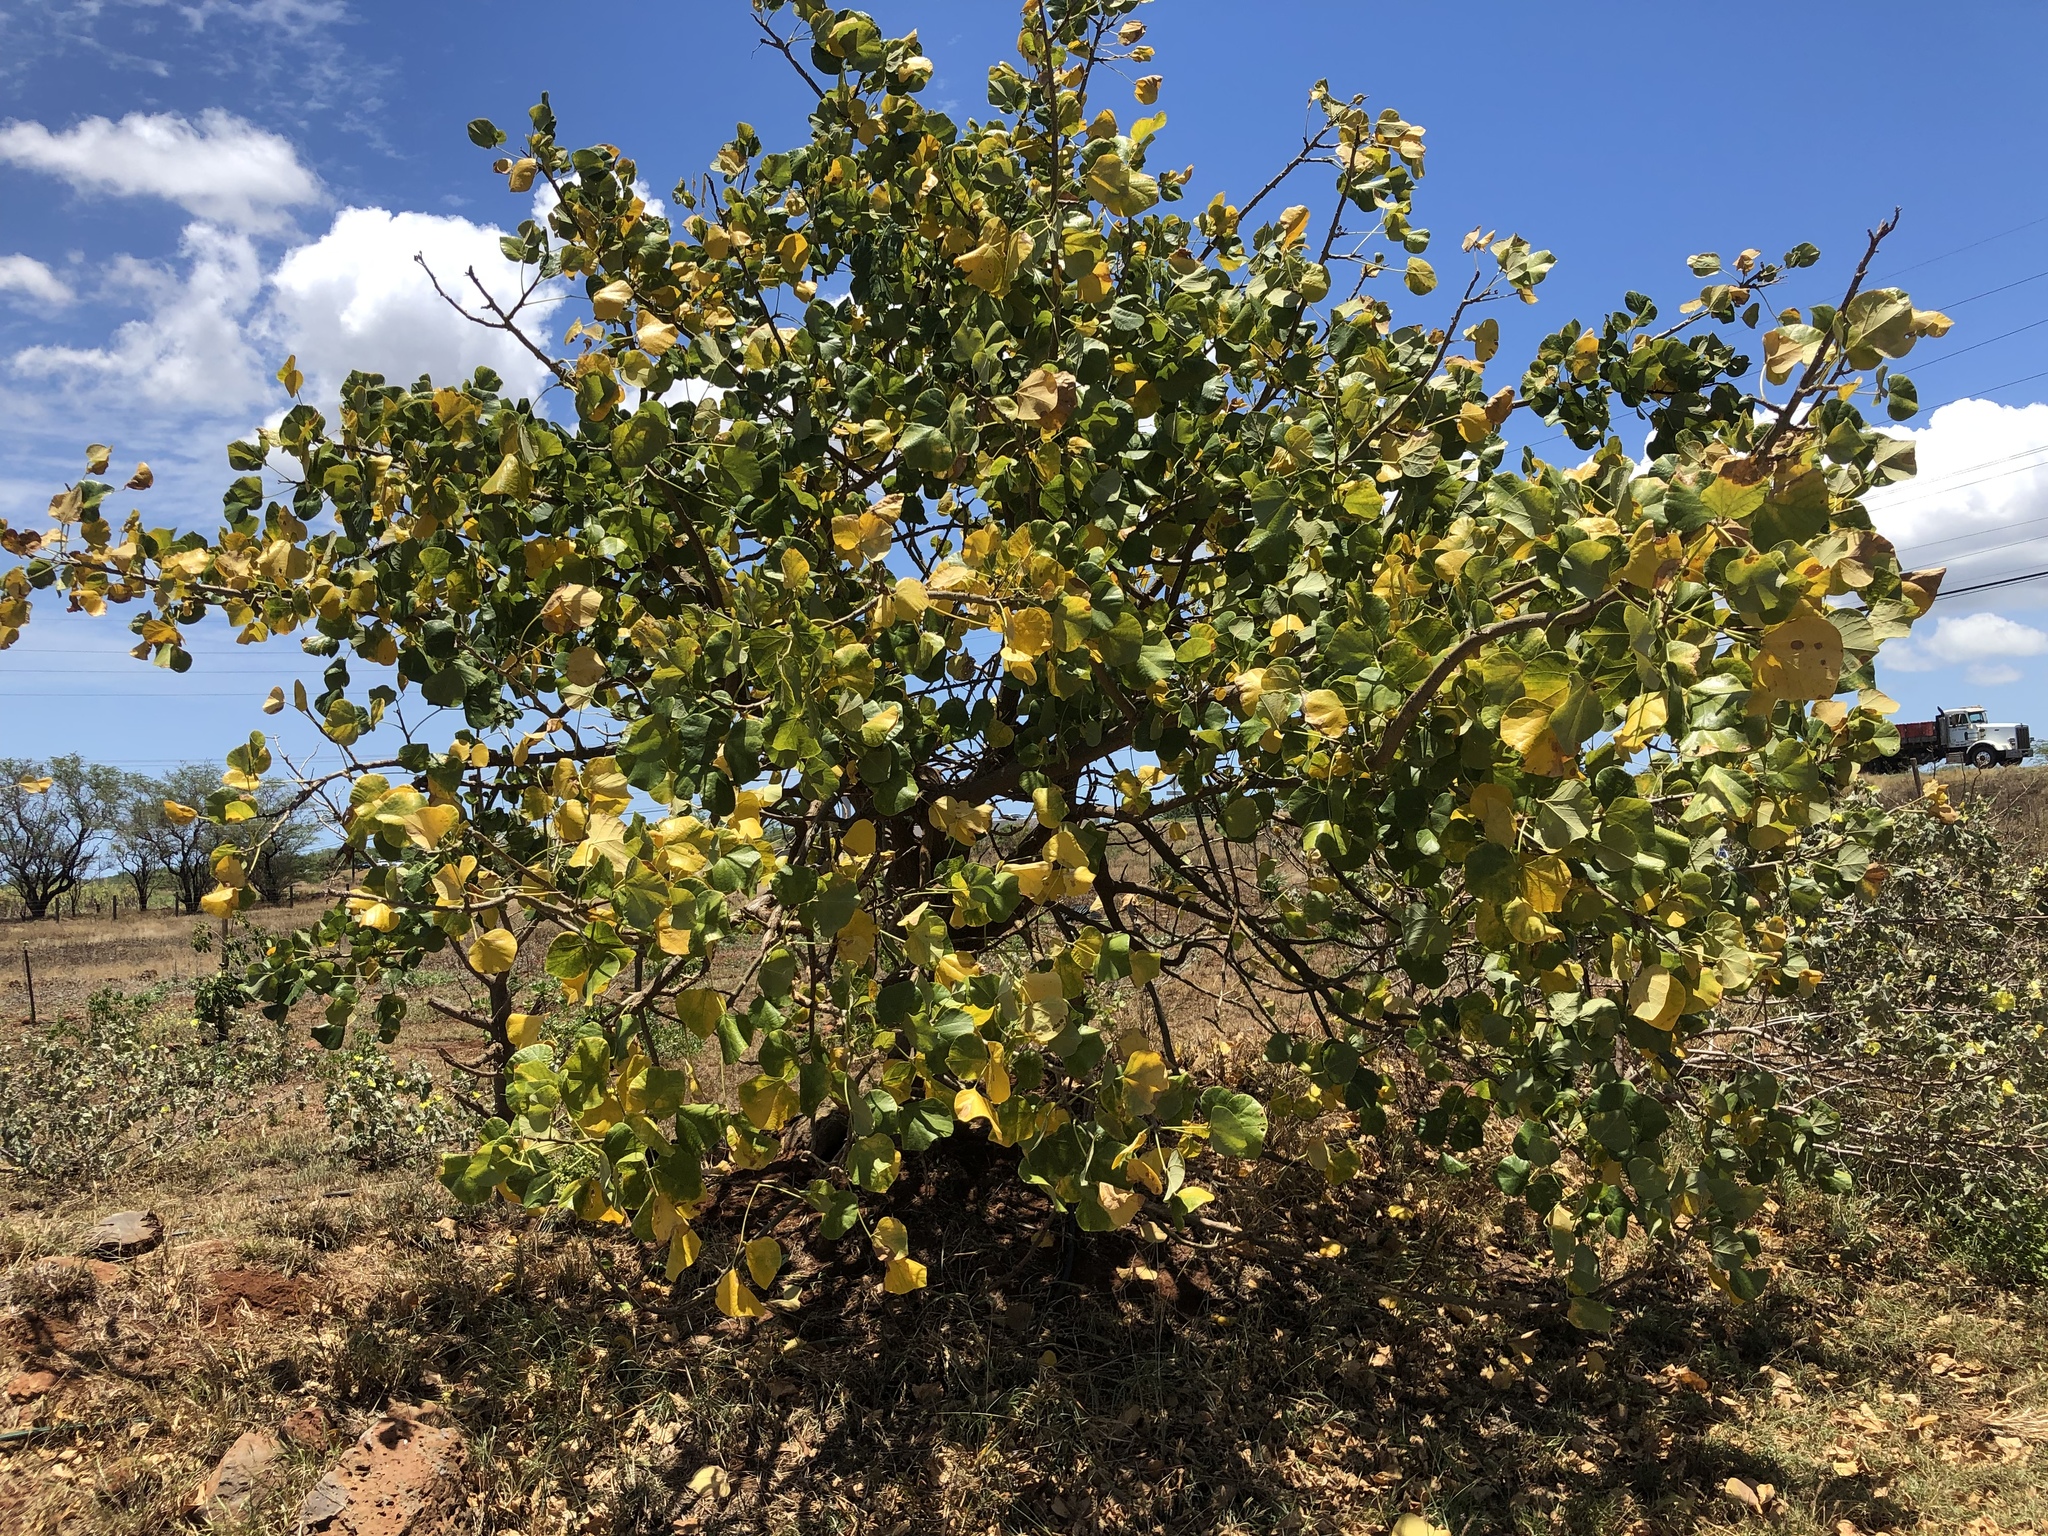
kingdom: Plantae
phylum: Tracheophyta
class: Magnoliopsida
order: Fabales
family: Fabaceae
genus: Erythrina
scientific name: Erythrina sandwicensis
